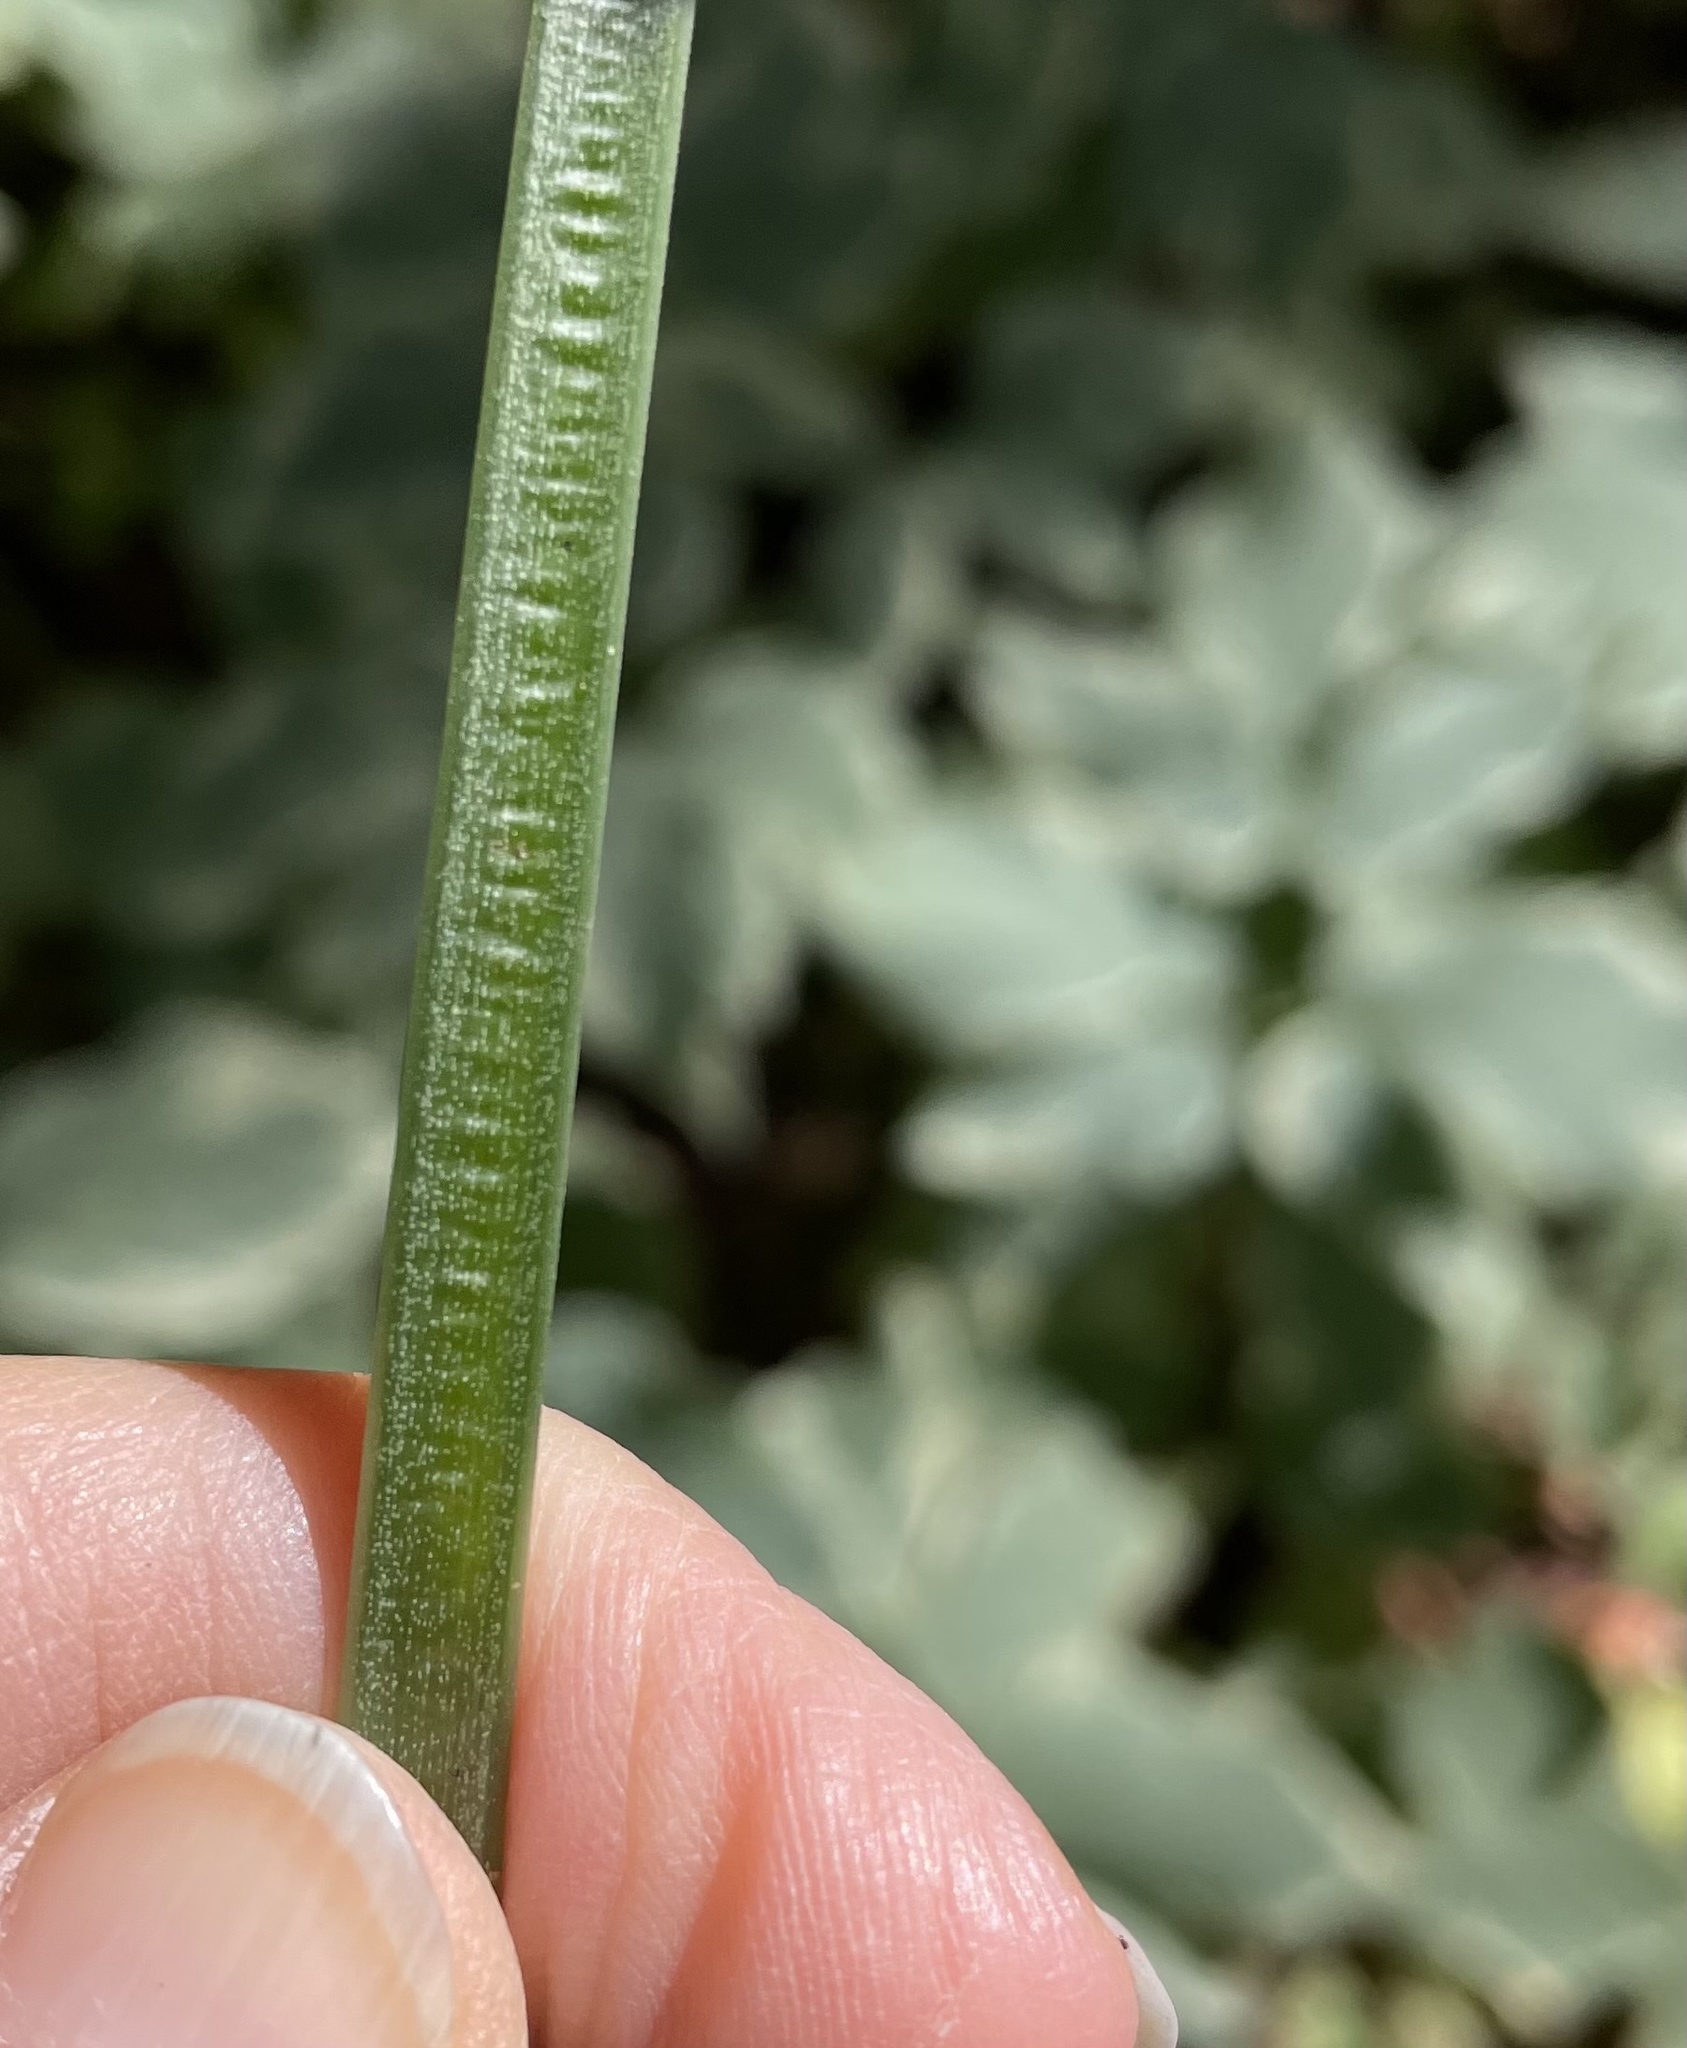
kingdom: Plantae
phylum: Tracheophyta
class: Magnoliopsida
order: Apiales
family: Apiaceae
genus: Aegopodium
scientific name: Aegopodium podagraria
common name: Ground-elder
